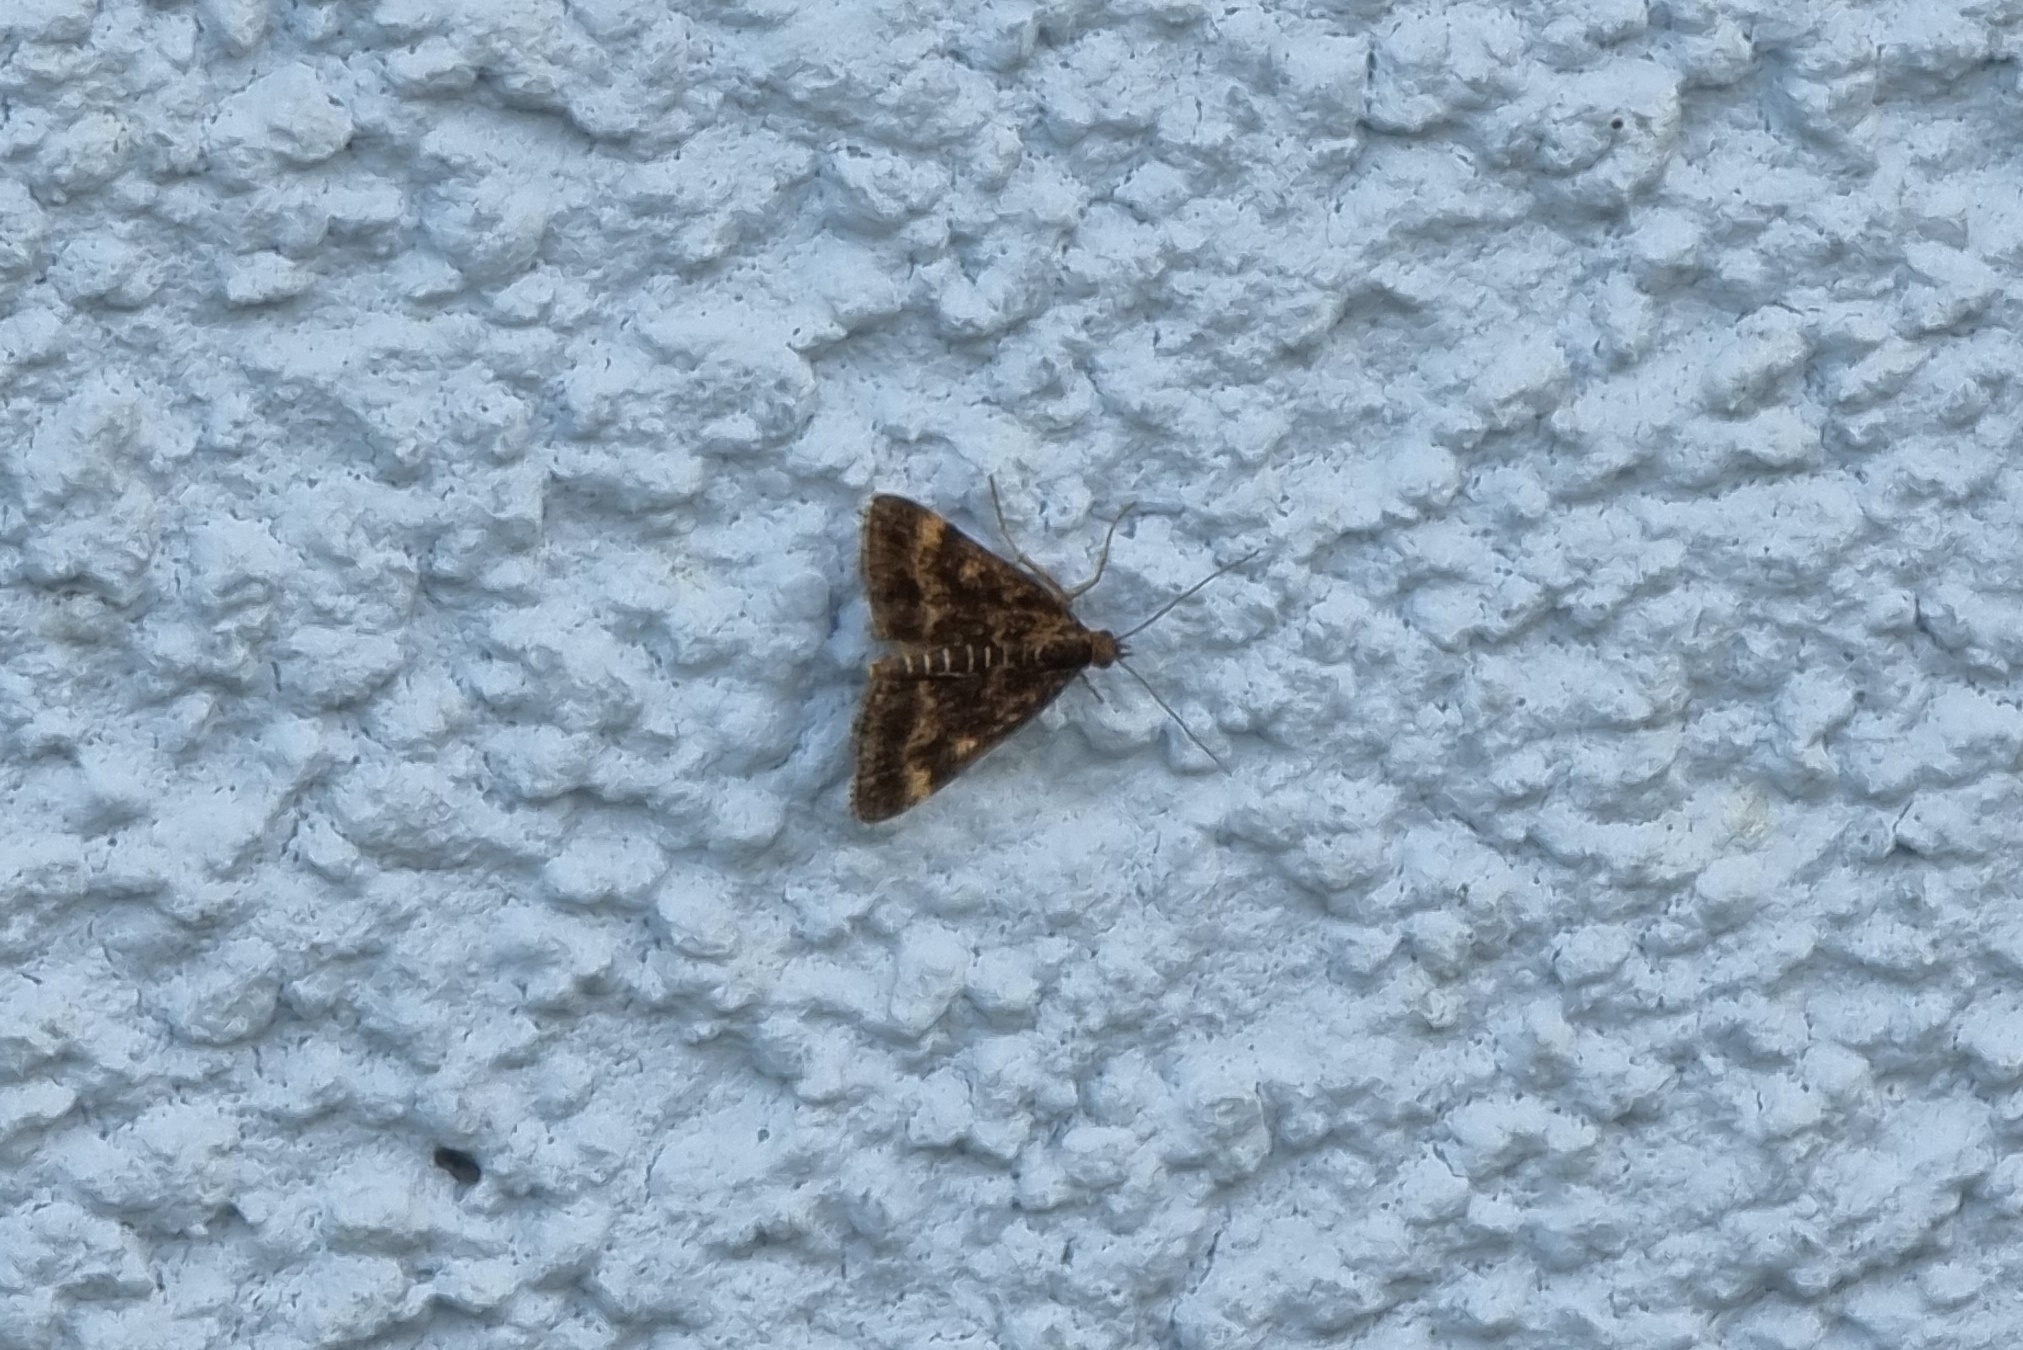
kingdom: Animalia
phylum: Arthropoda
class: Insecta
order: Lepidoptera
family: Crambidae
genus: Pyrausta
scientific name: Pyrausta despicata
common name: Straw-barred pearl
